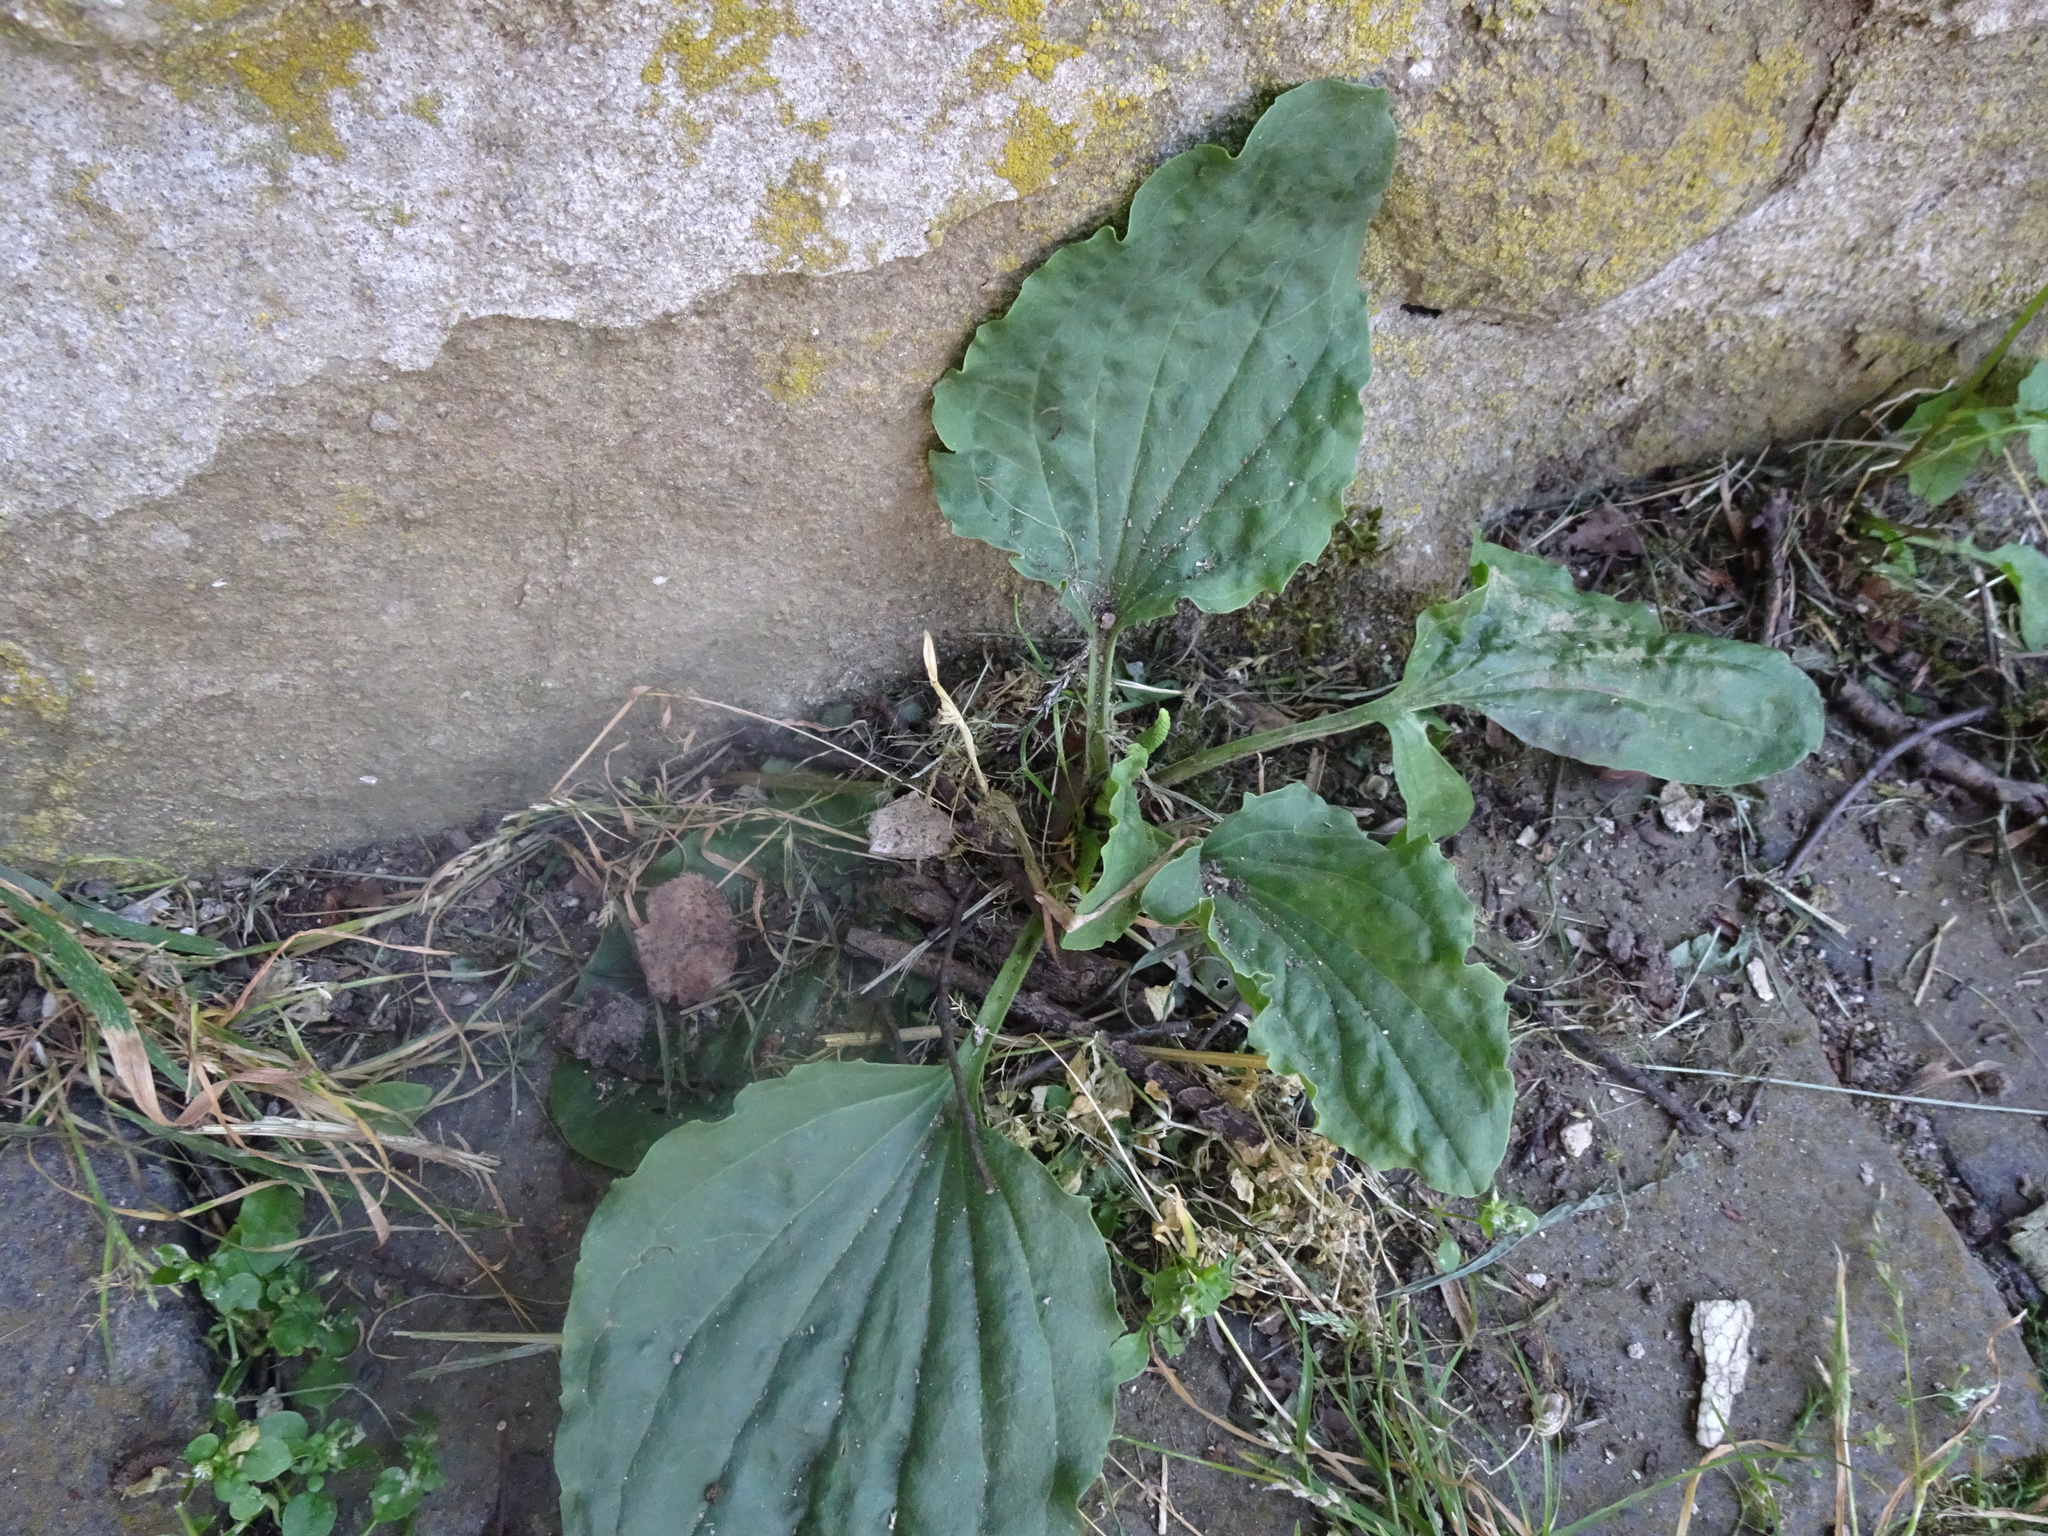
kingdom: Plantae
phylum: Tracheophyta
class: Magnoliopsida
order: Lamiales
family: Plantaginaceae
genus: Plantago
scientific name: Plantago major
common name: Common plantain
